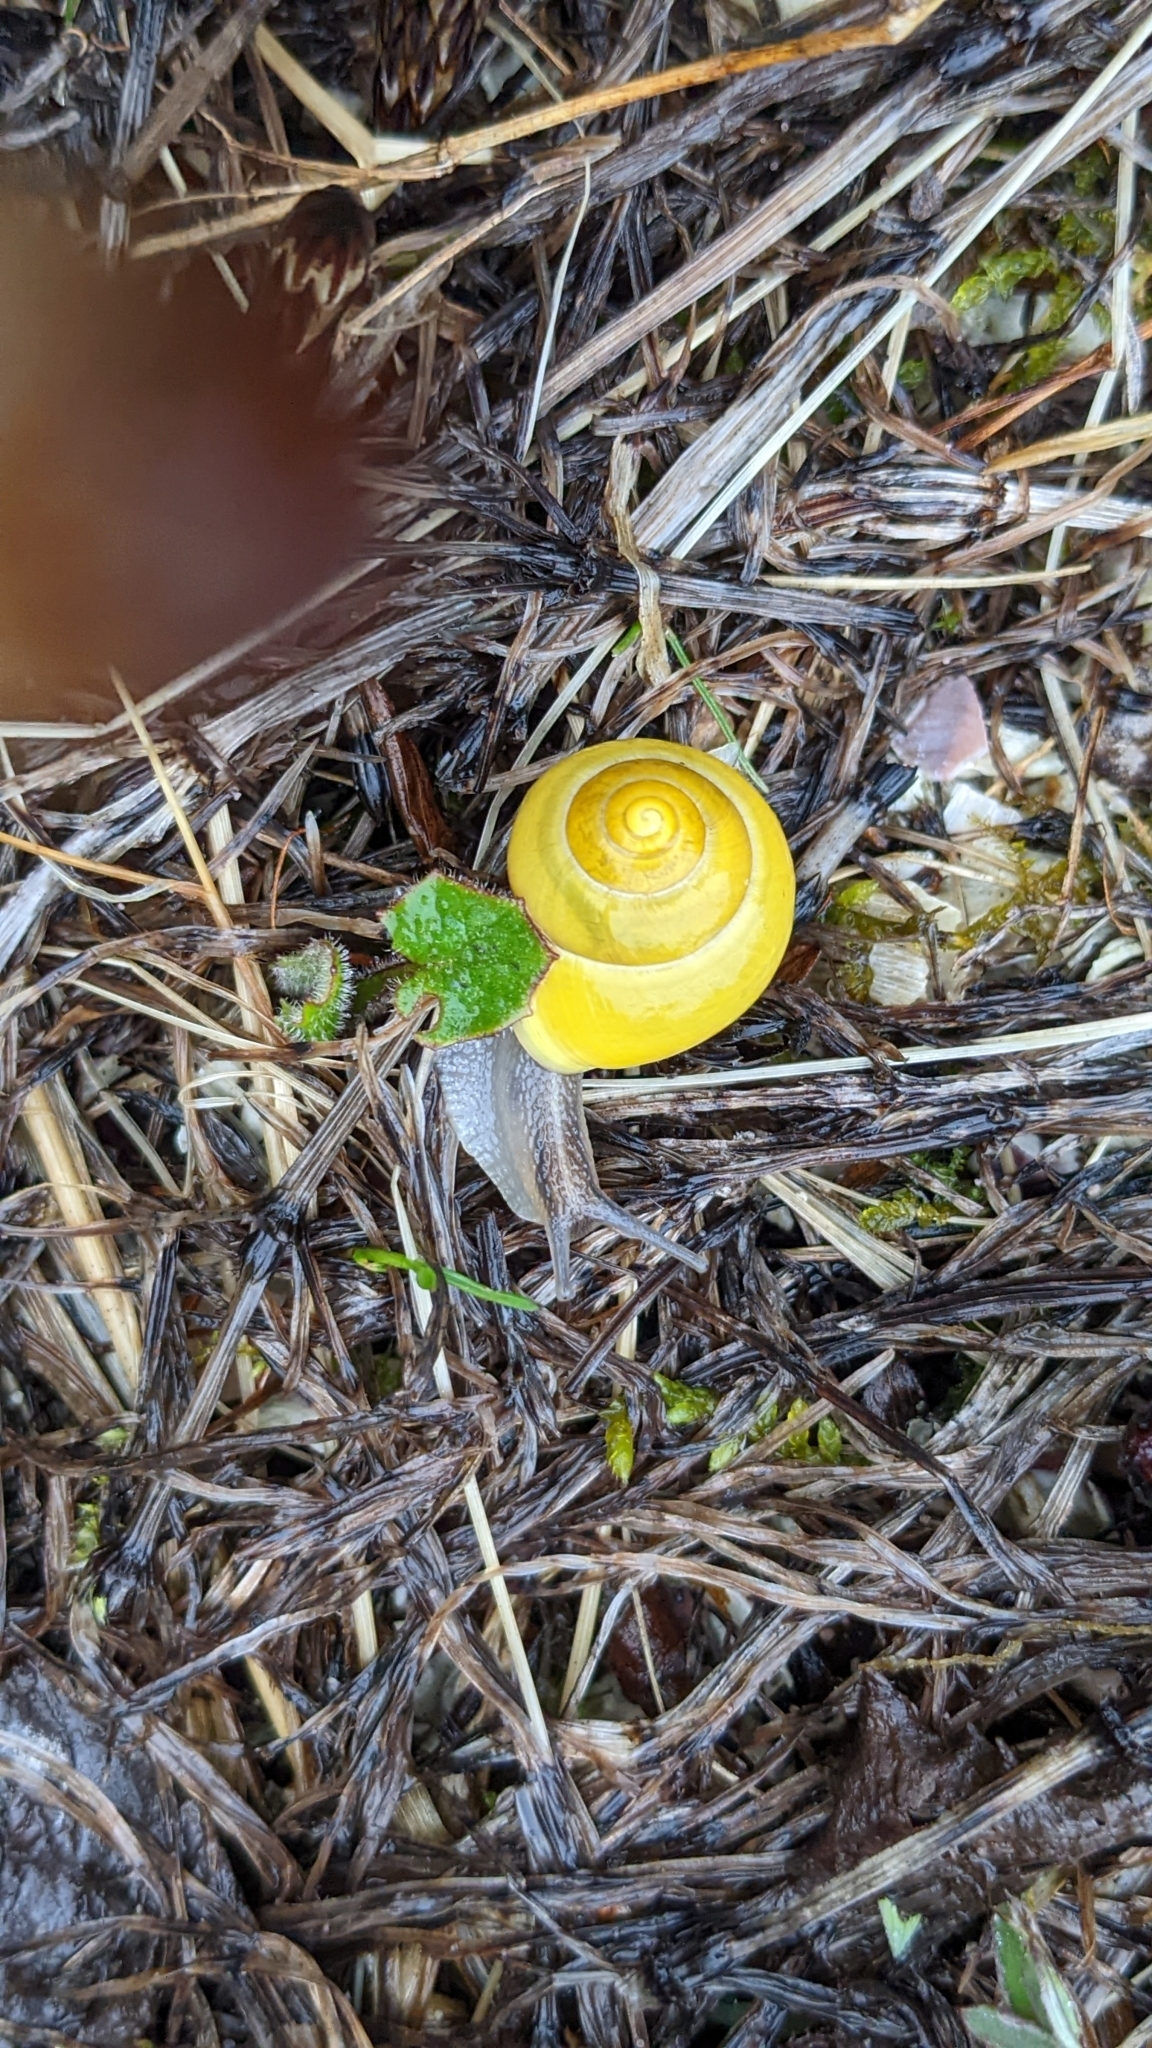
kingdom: Animalia
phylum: Mollusca
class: Gastropoda
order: Stylommatophora
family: Helicidae
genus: Cepaea
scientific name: Cepaea hortensis
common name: White-lip gardensnail
